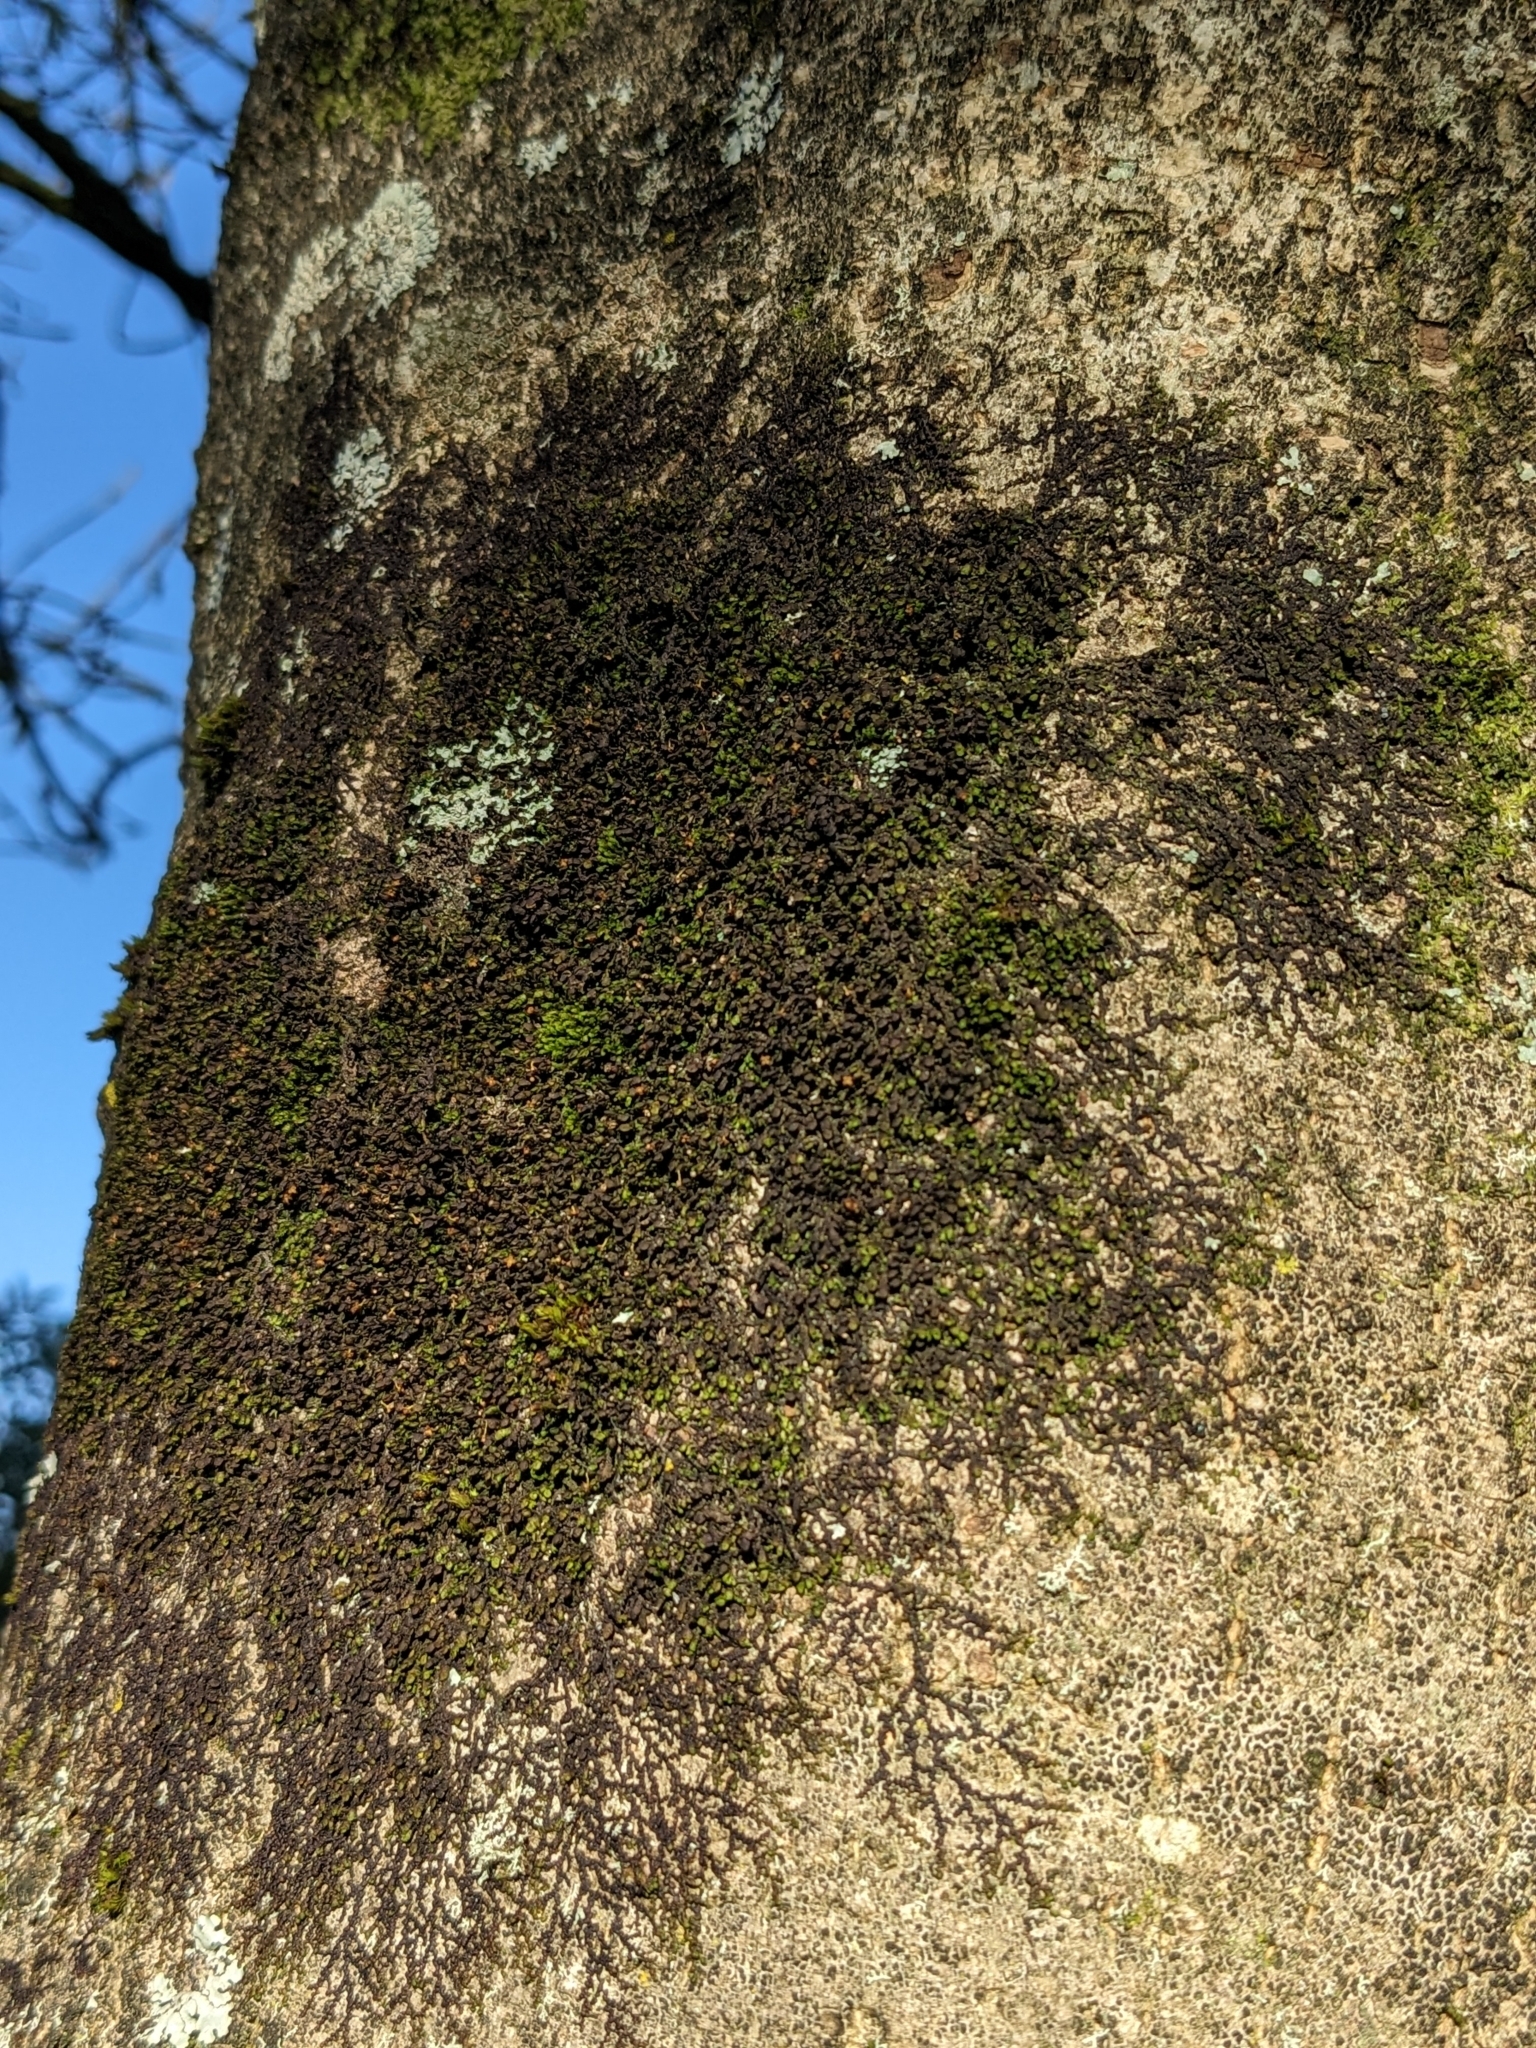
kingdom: Plantae
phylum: Marchantiophyta
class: Jungermanniopsida
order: Porellales
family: Frullaniaceae
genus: Frullania
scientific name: Frullania dilatata
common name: Dilated scalewort
